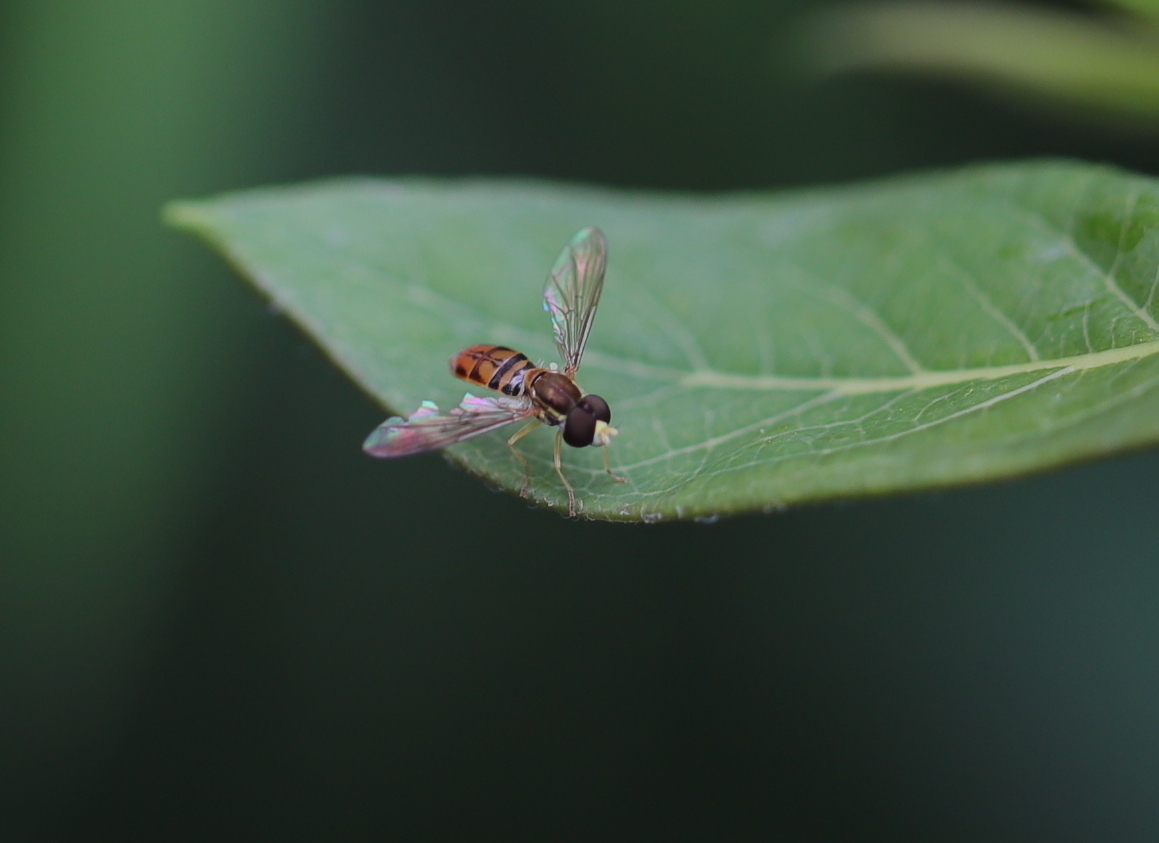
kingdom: Animalia
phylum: Arthropoda
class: Insecta
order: Diptera
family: Syrphidae
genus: Toxomerus
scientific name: Toxomerus marginatus
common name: Syrphid fly
